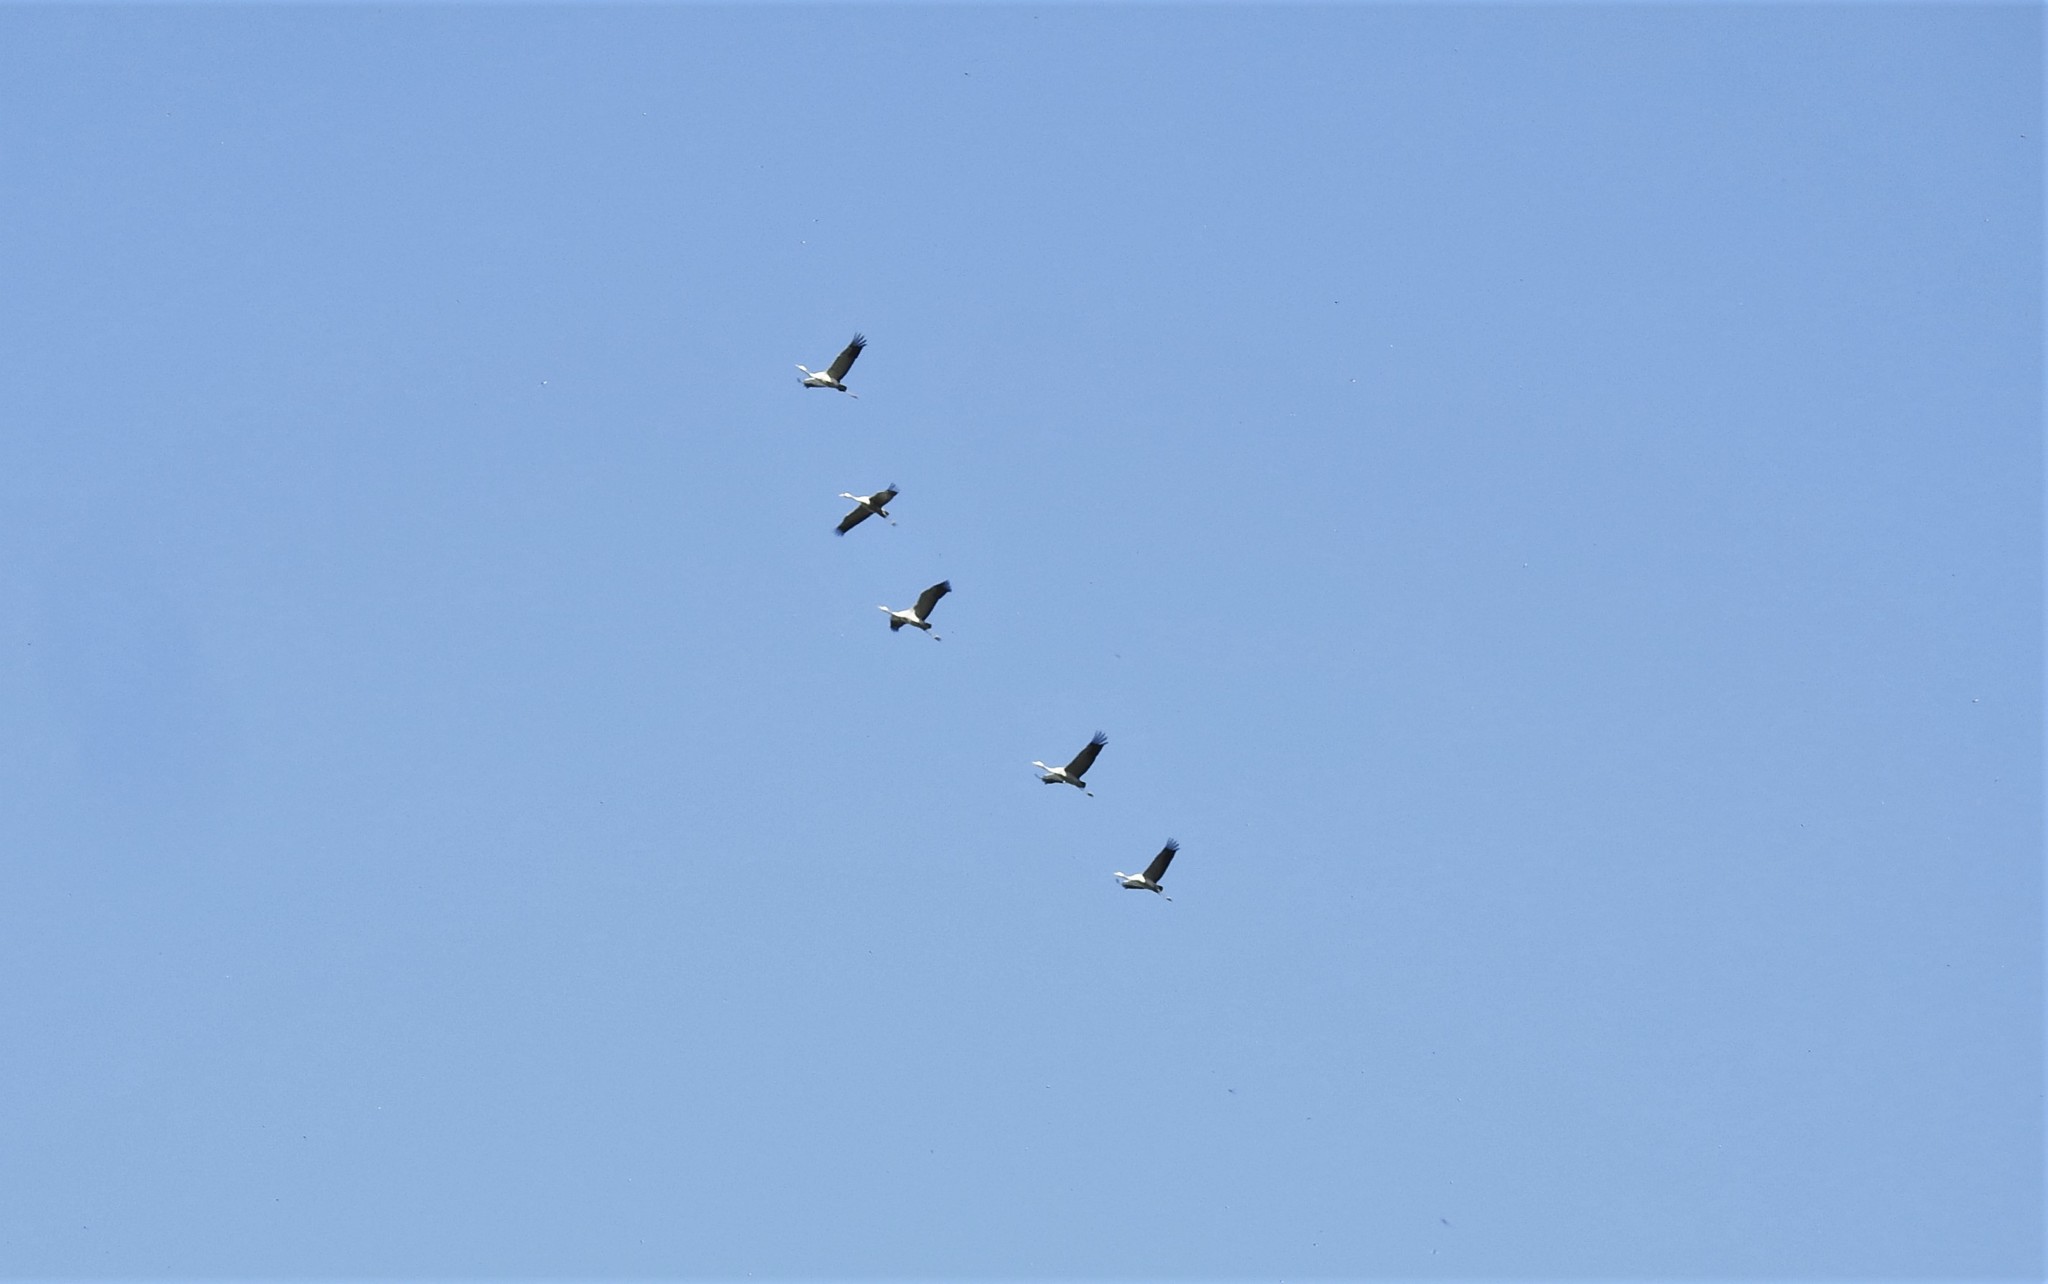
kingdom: Animalia
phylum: Chordata
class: Aves
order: Gruiformes
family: Gruidae
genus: Grus
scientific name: Grus grus
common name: Common crane
